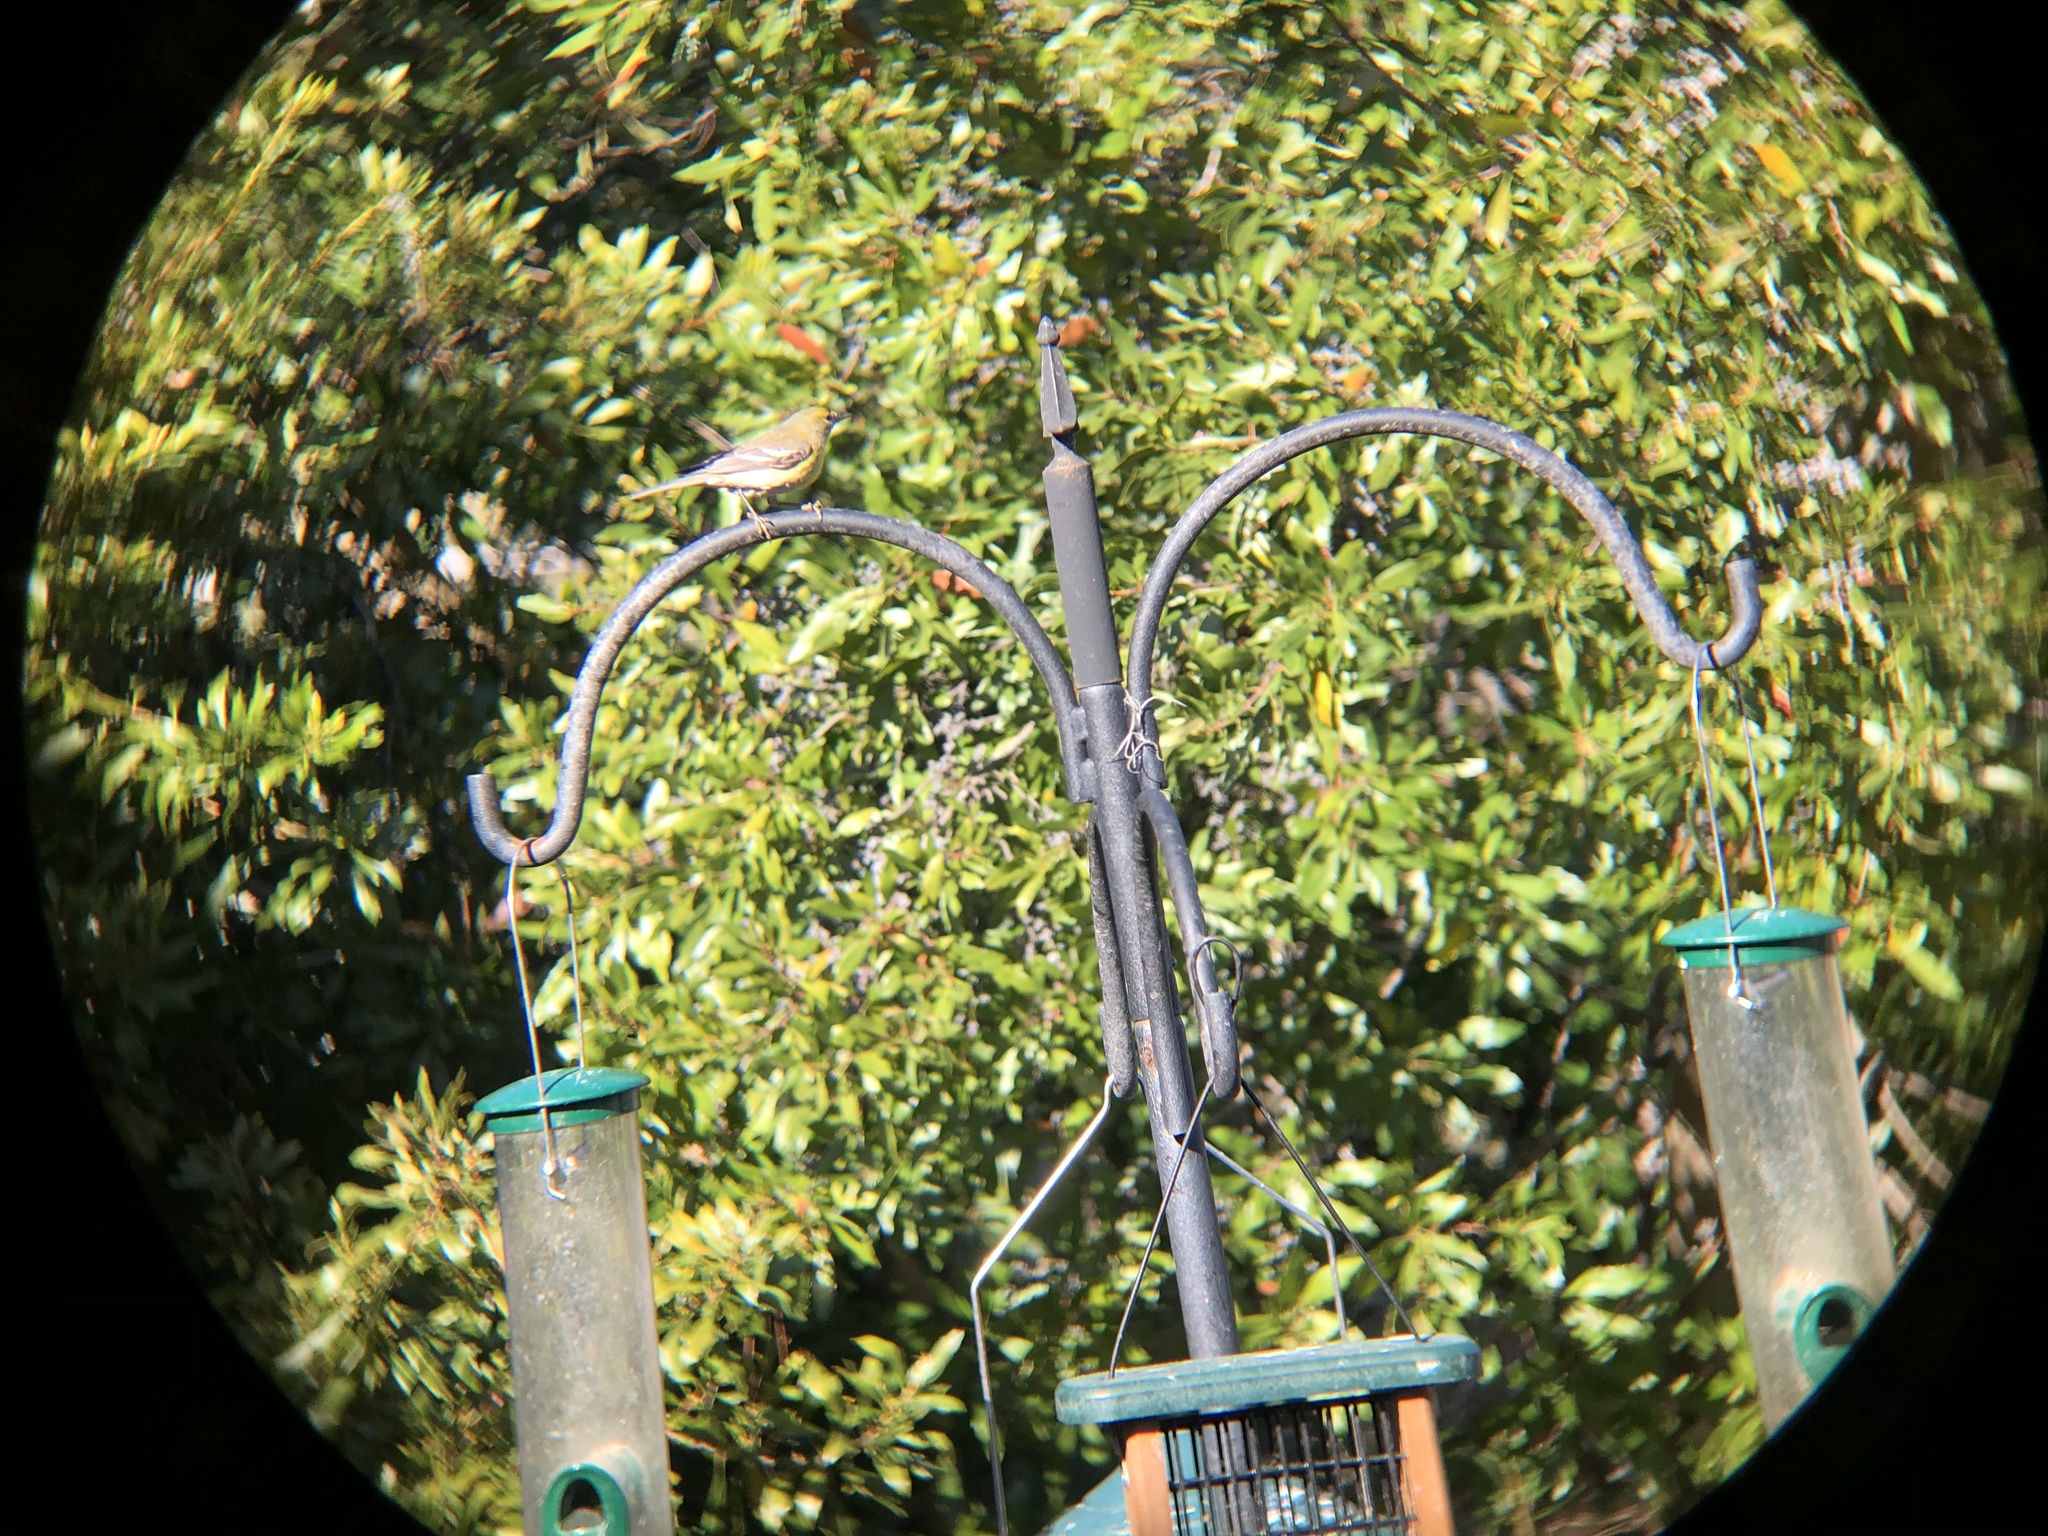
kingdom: Animalia
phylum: Chordata
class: Aves
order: Passeriformes
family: Parulidae
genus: Setophaga
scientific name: Setophaga pinus
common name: Pine warbler
